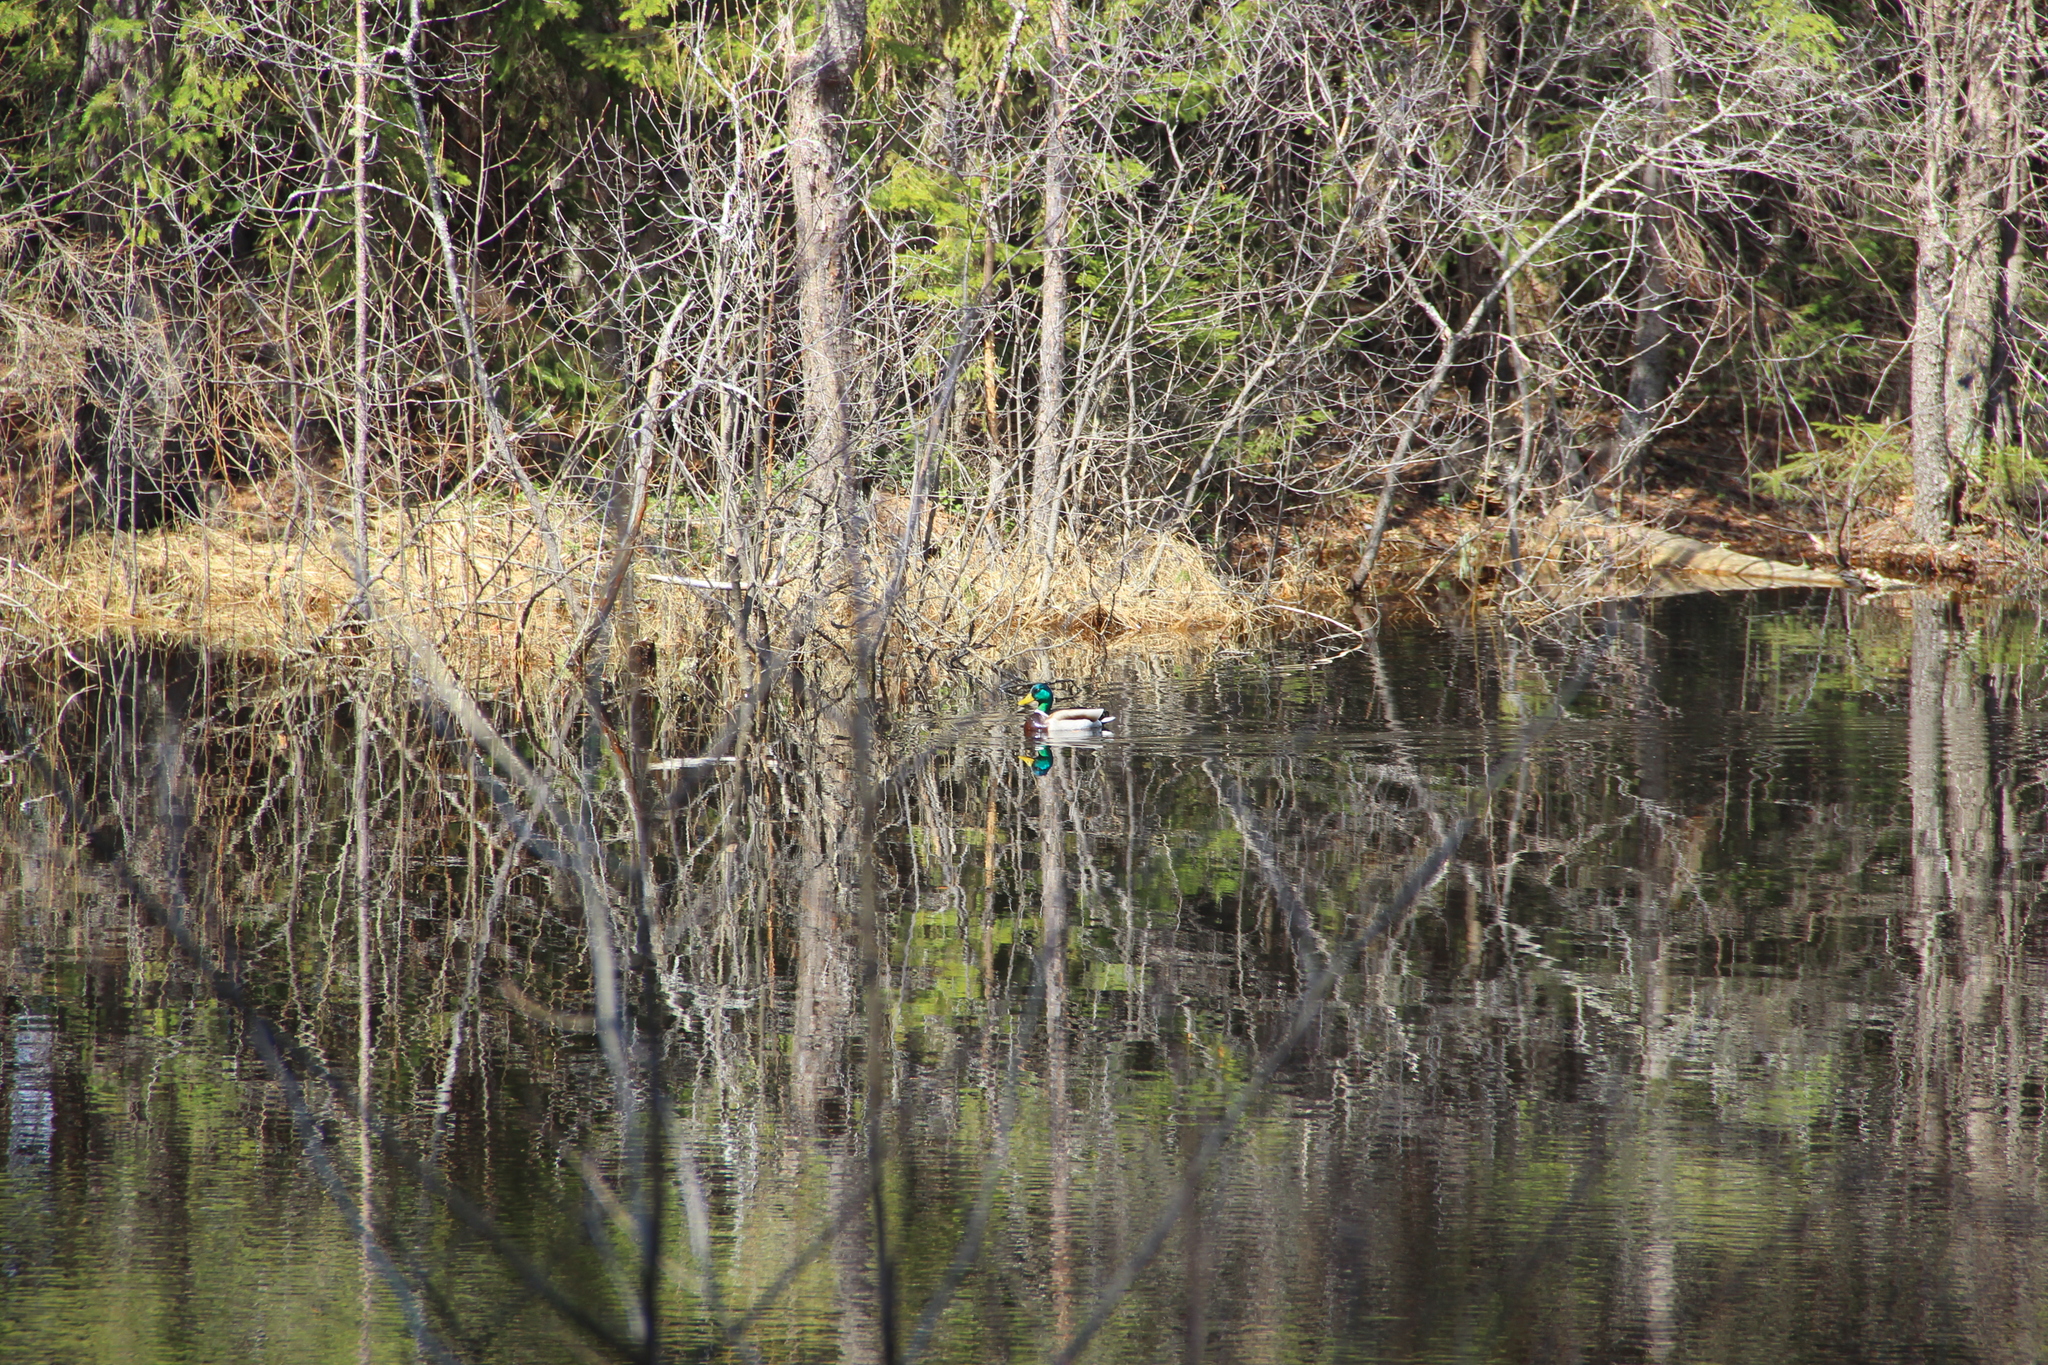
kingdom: Animalia
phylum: Chordata
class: Aves
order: Anseriformes
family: Anatidae
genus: Anas
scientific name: Anas platyrhynchos
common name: Mallard
